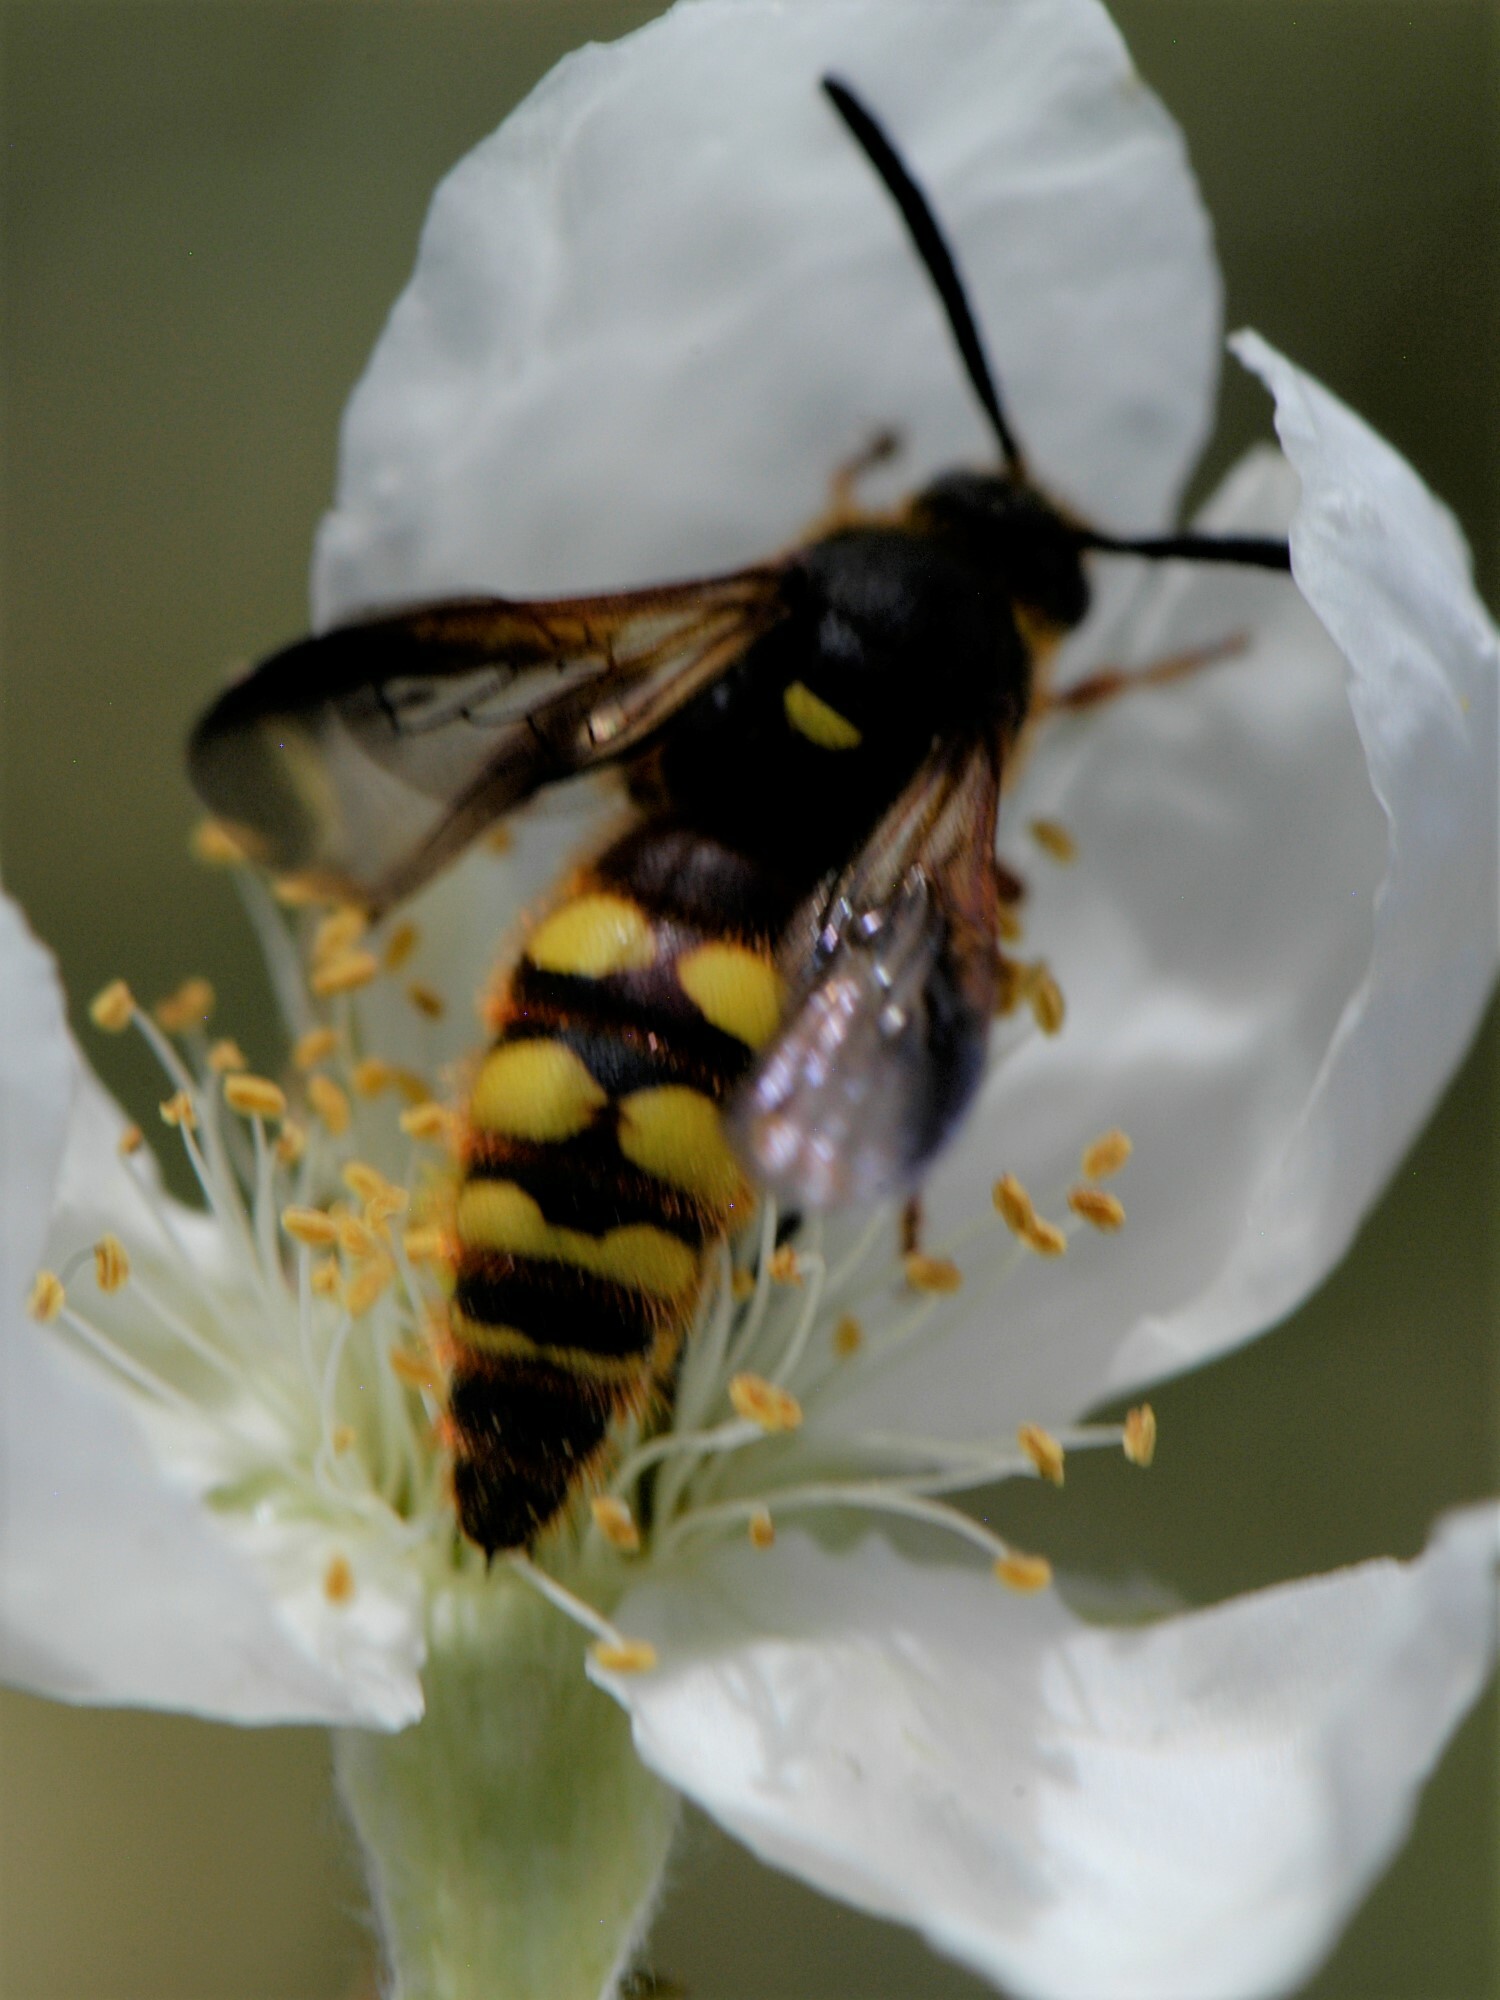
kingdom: Animalia
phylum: Arthropoda
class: Insecta
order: Hymenoptera
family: Scoliidae
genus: Scolia
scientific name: Scolia nobilitata
